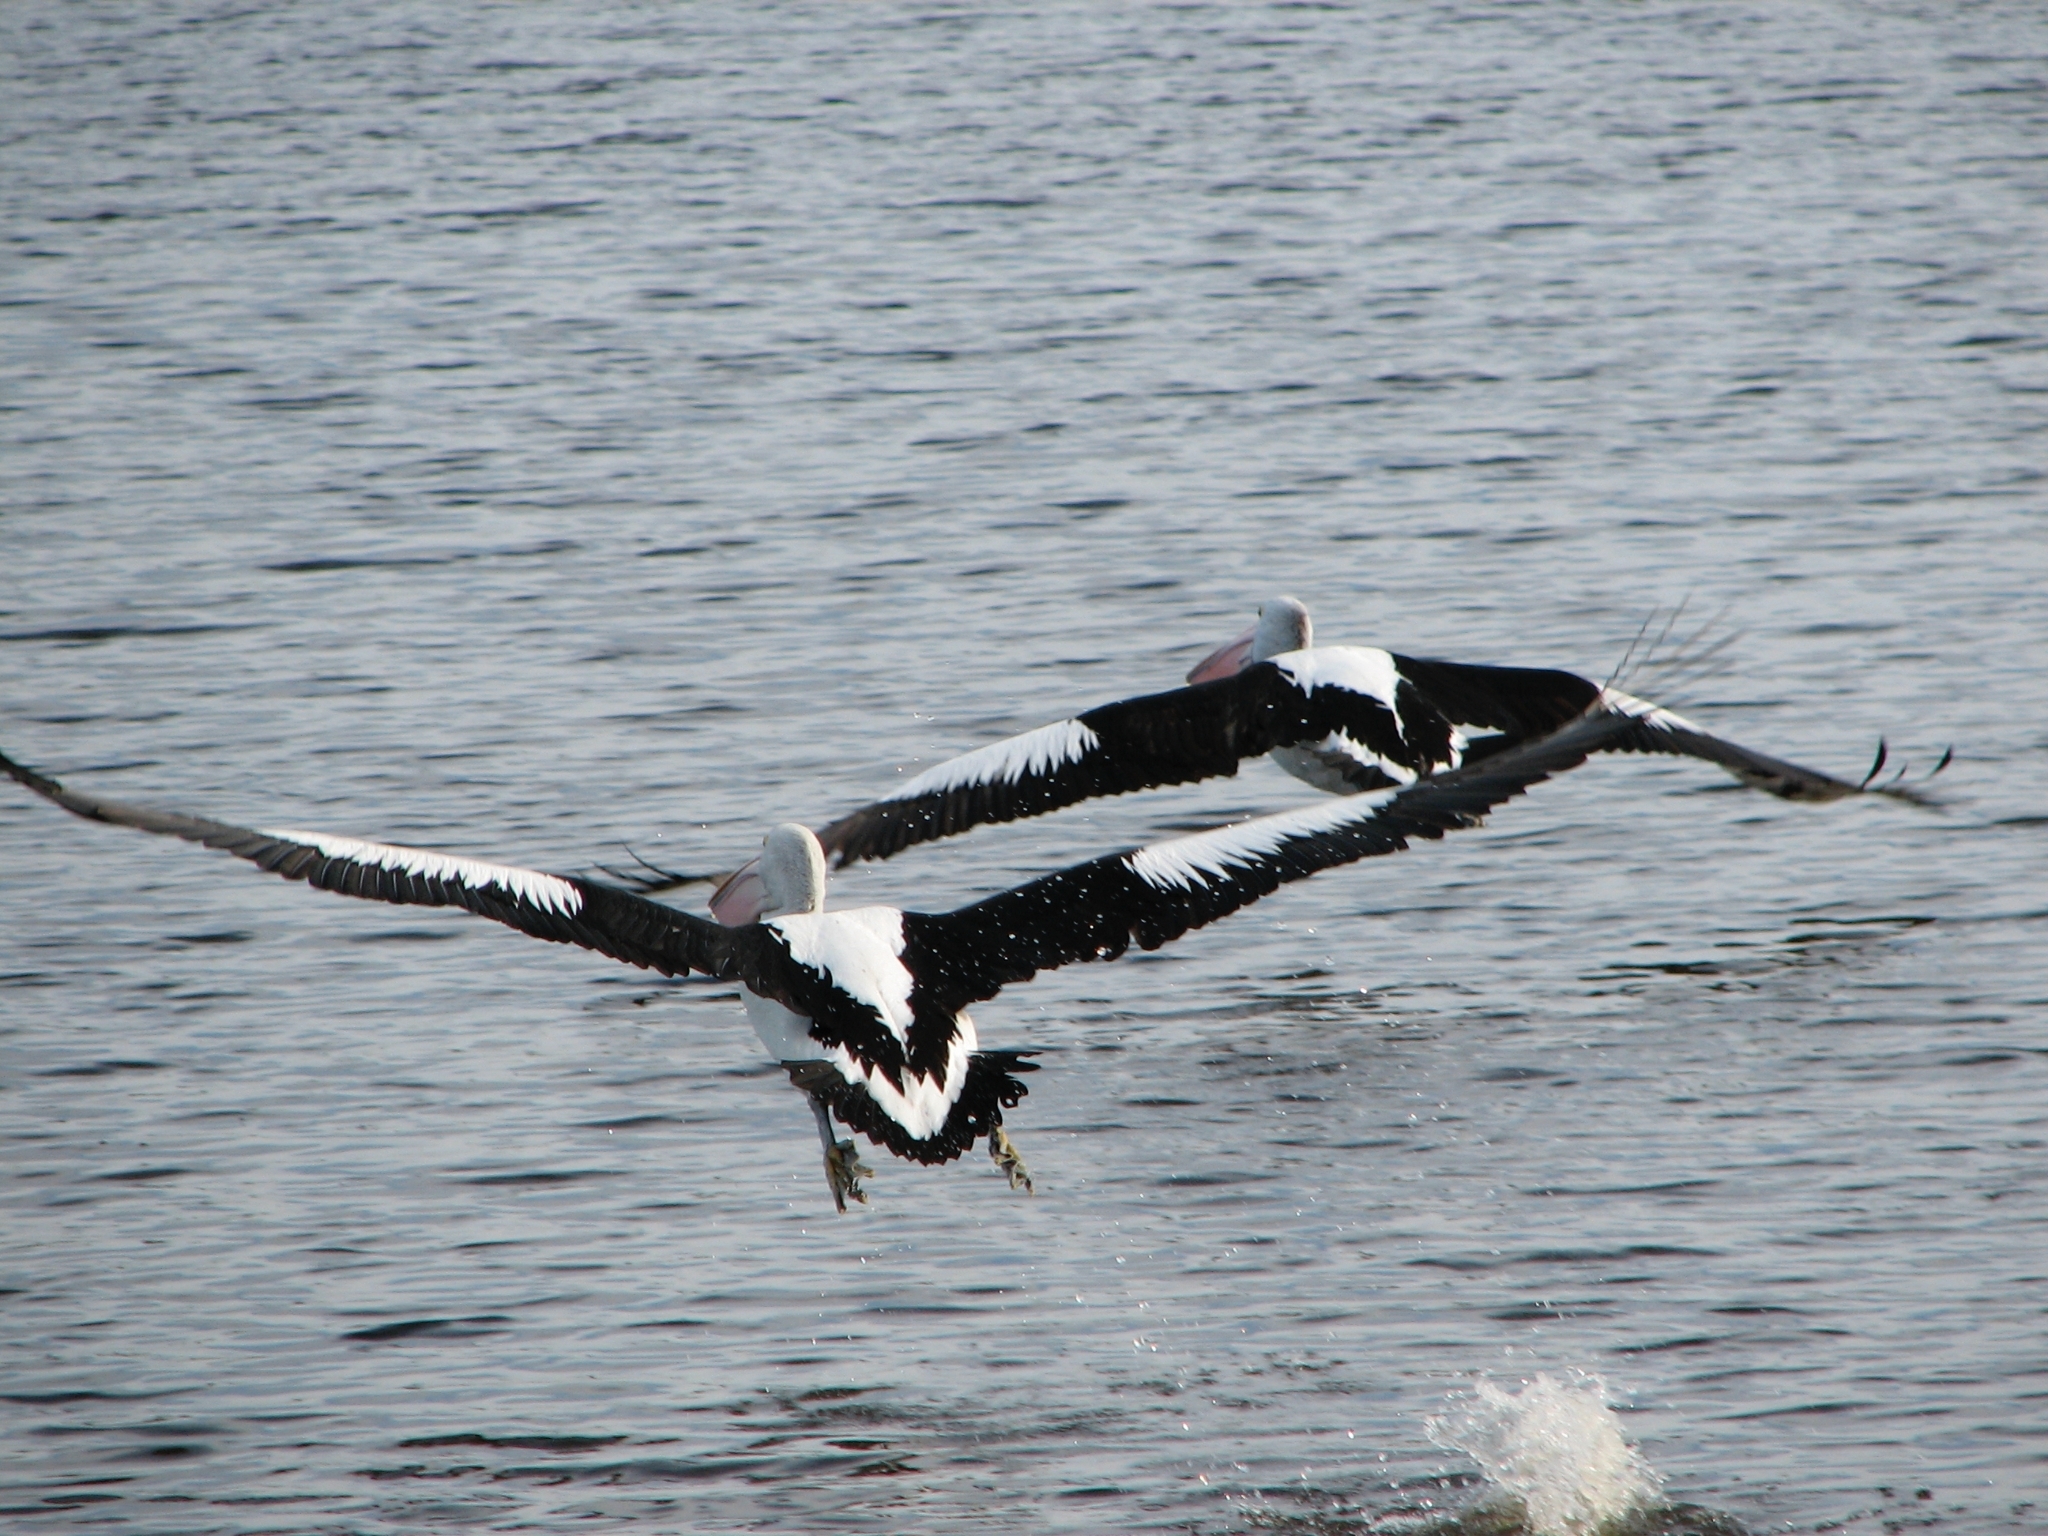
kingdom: Animalia
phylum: Chordata
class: Aves
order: Pelecaniformes
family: Pelecanidae
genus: Pelecanus
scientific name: Pelecanus conspicillatus
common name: Australian pelican
